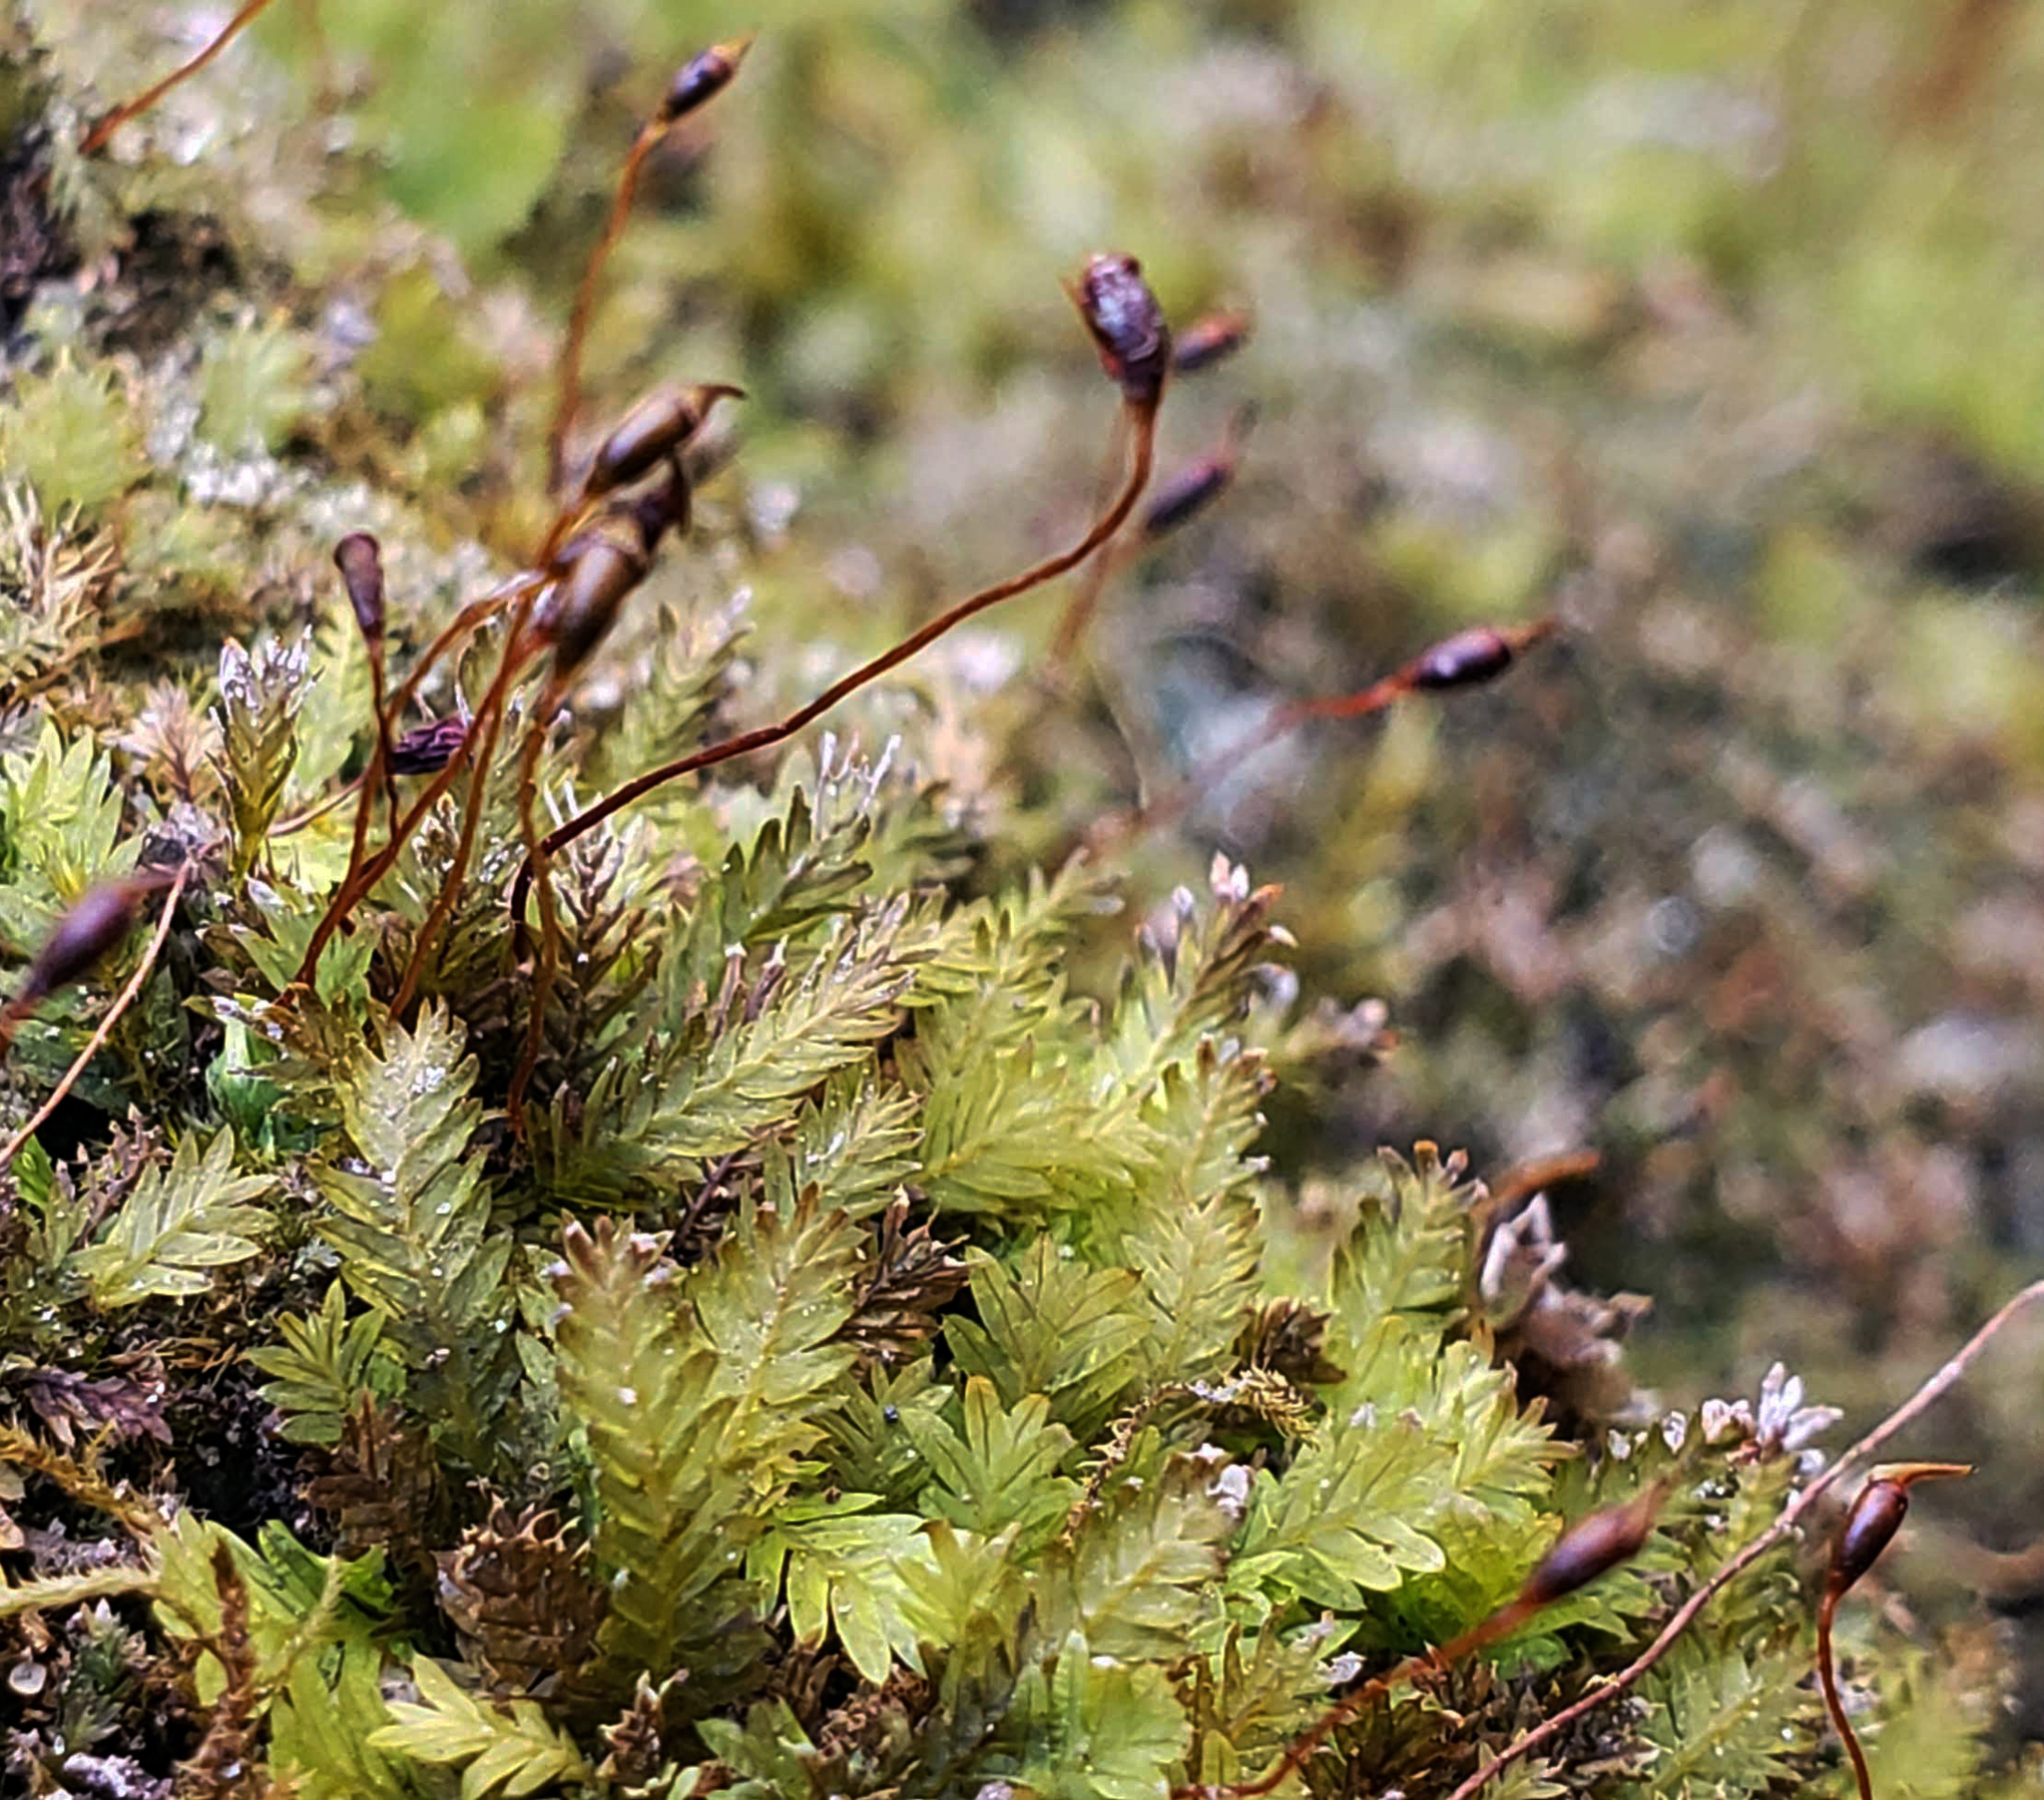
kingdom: Plantae
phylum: Bryophyta
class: Bryopsida
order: Dicranales
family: Fissidentaceae
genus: Fissidens
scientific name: Fissidens
